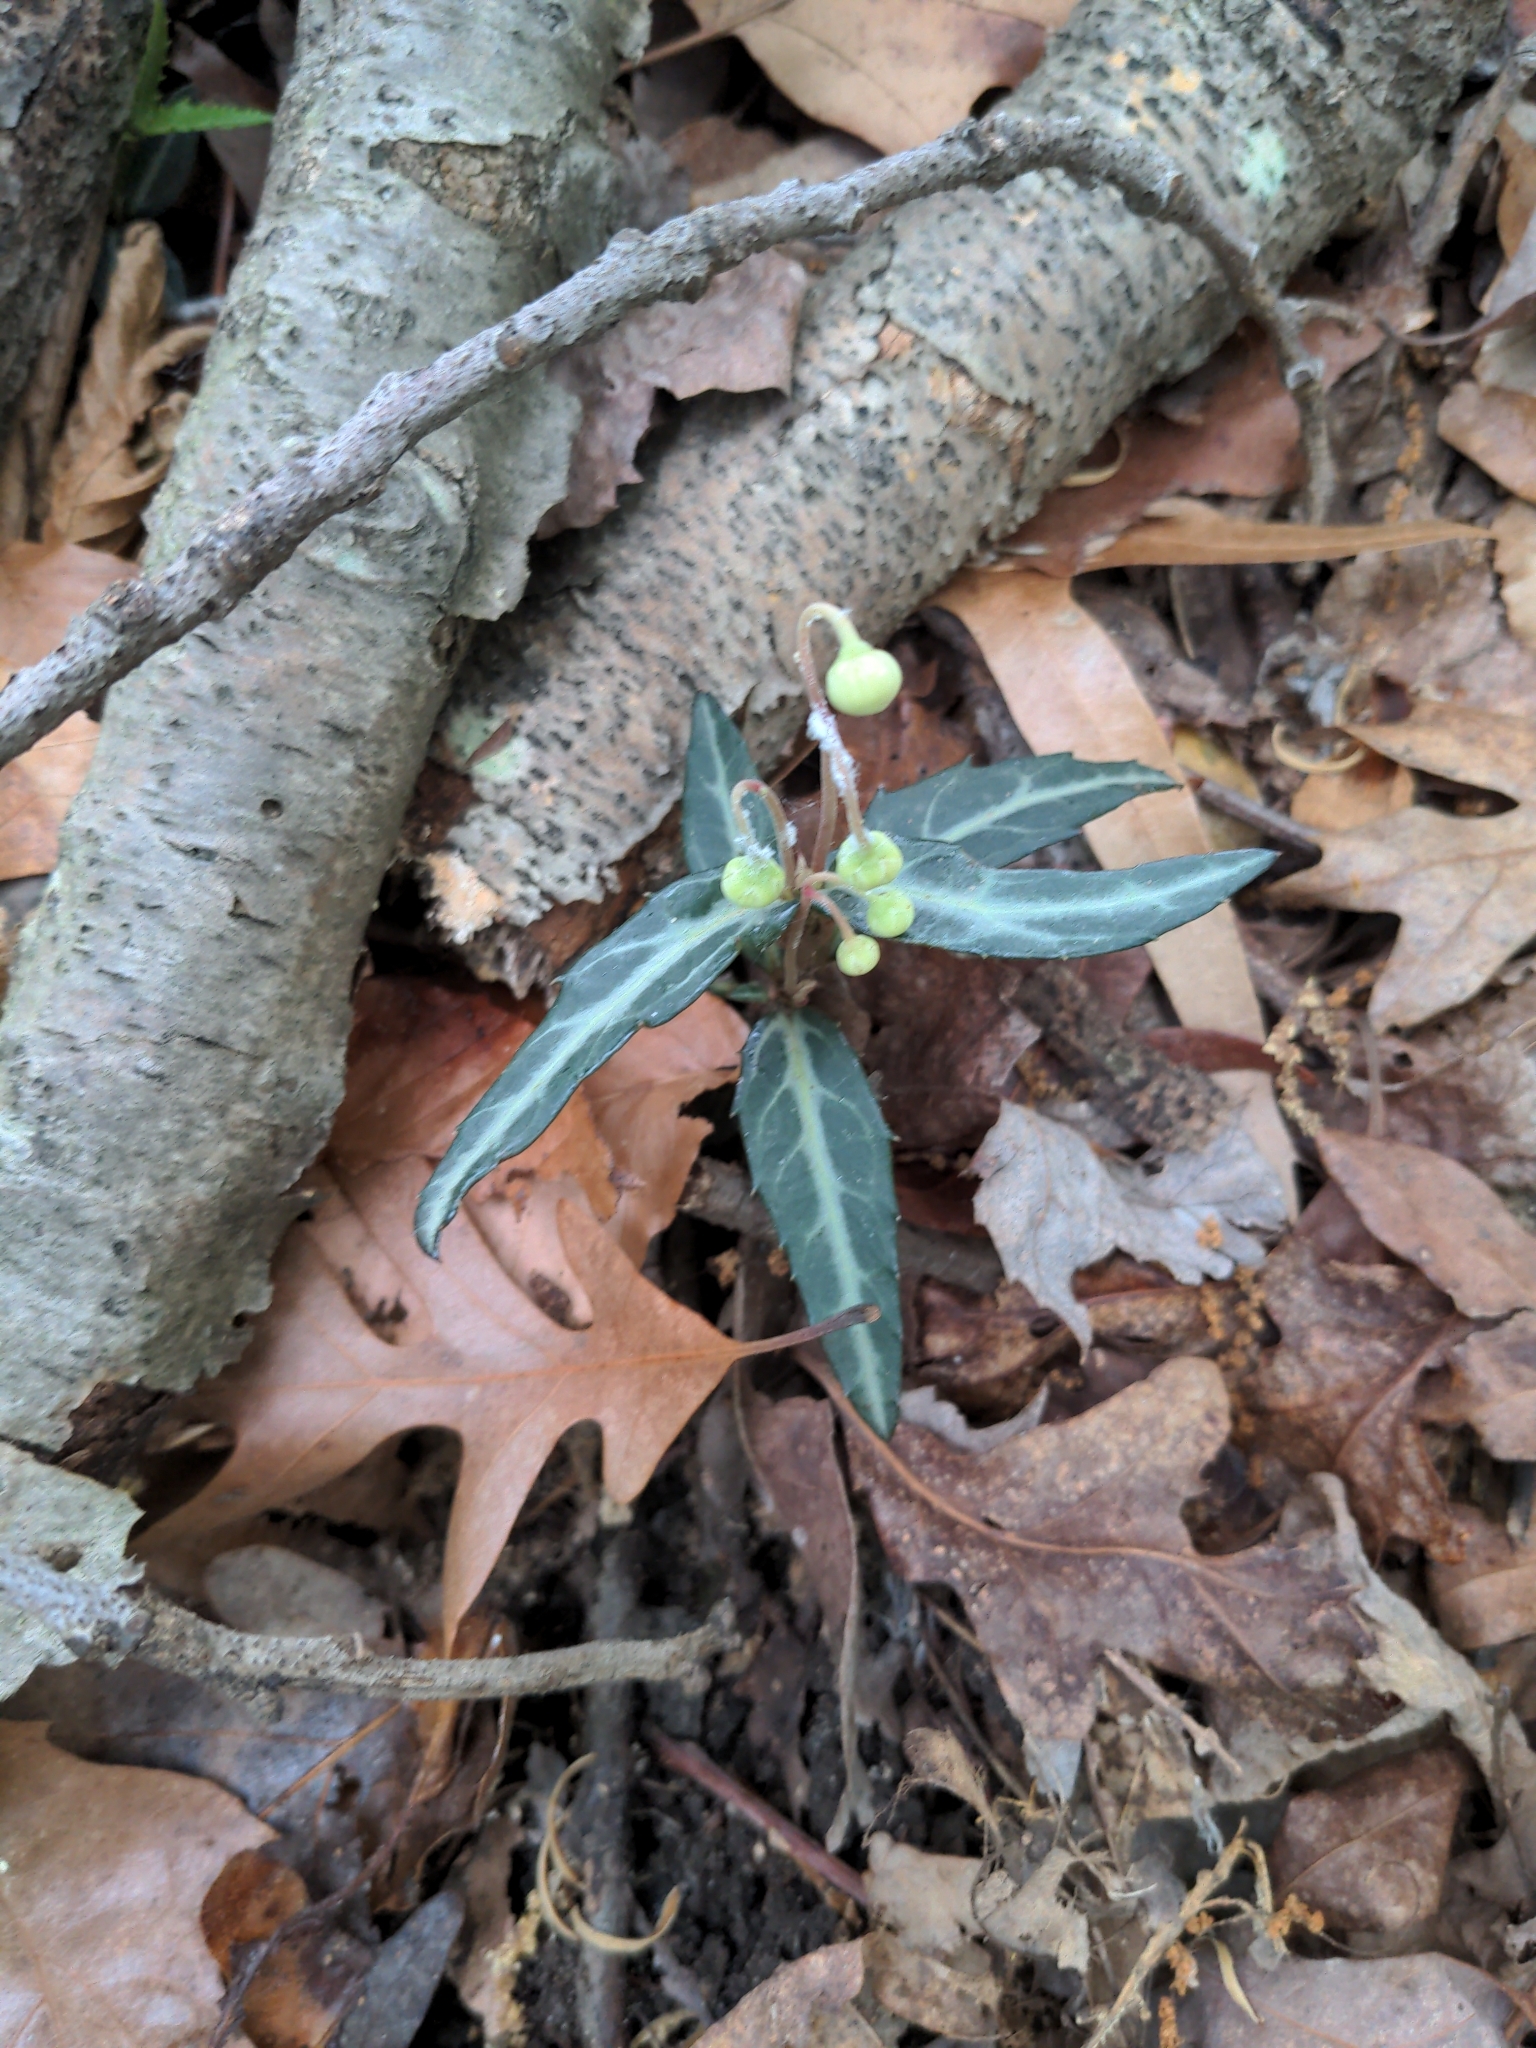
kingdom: Plantae
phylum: Tracheophyta
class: Magnoliopsida
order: Ericales
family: Ericaceae
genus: Chimaphila
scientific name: Chimaphila maculata
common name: Spotted pipsissewa
